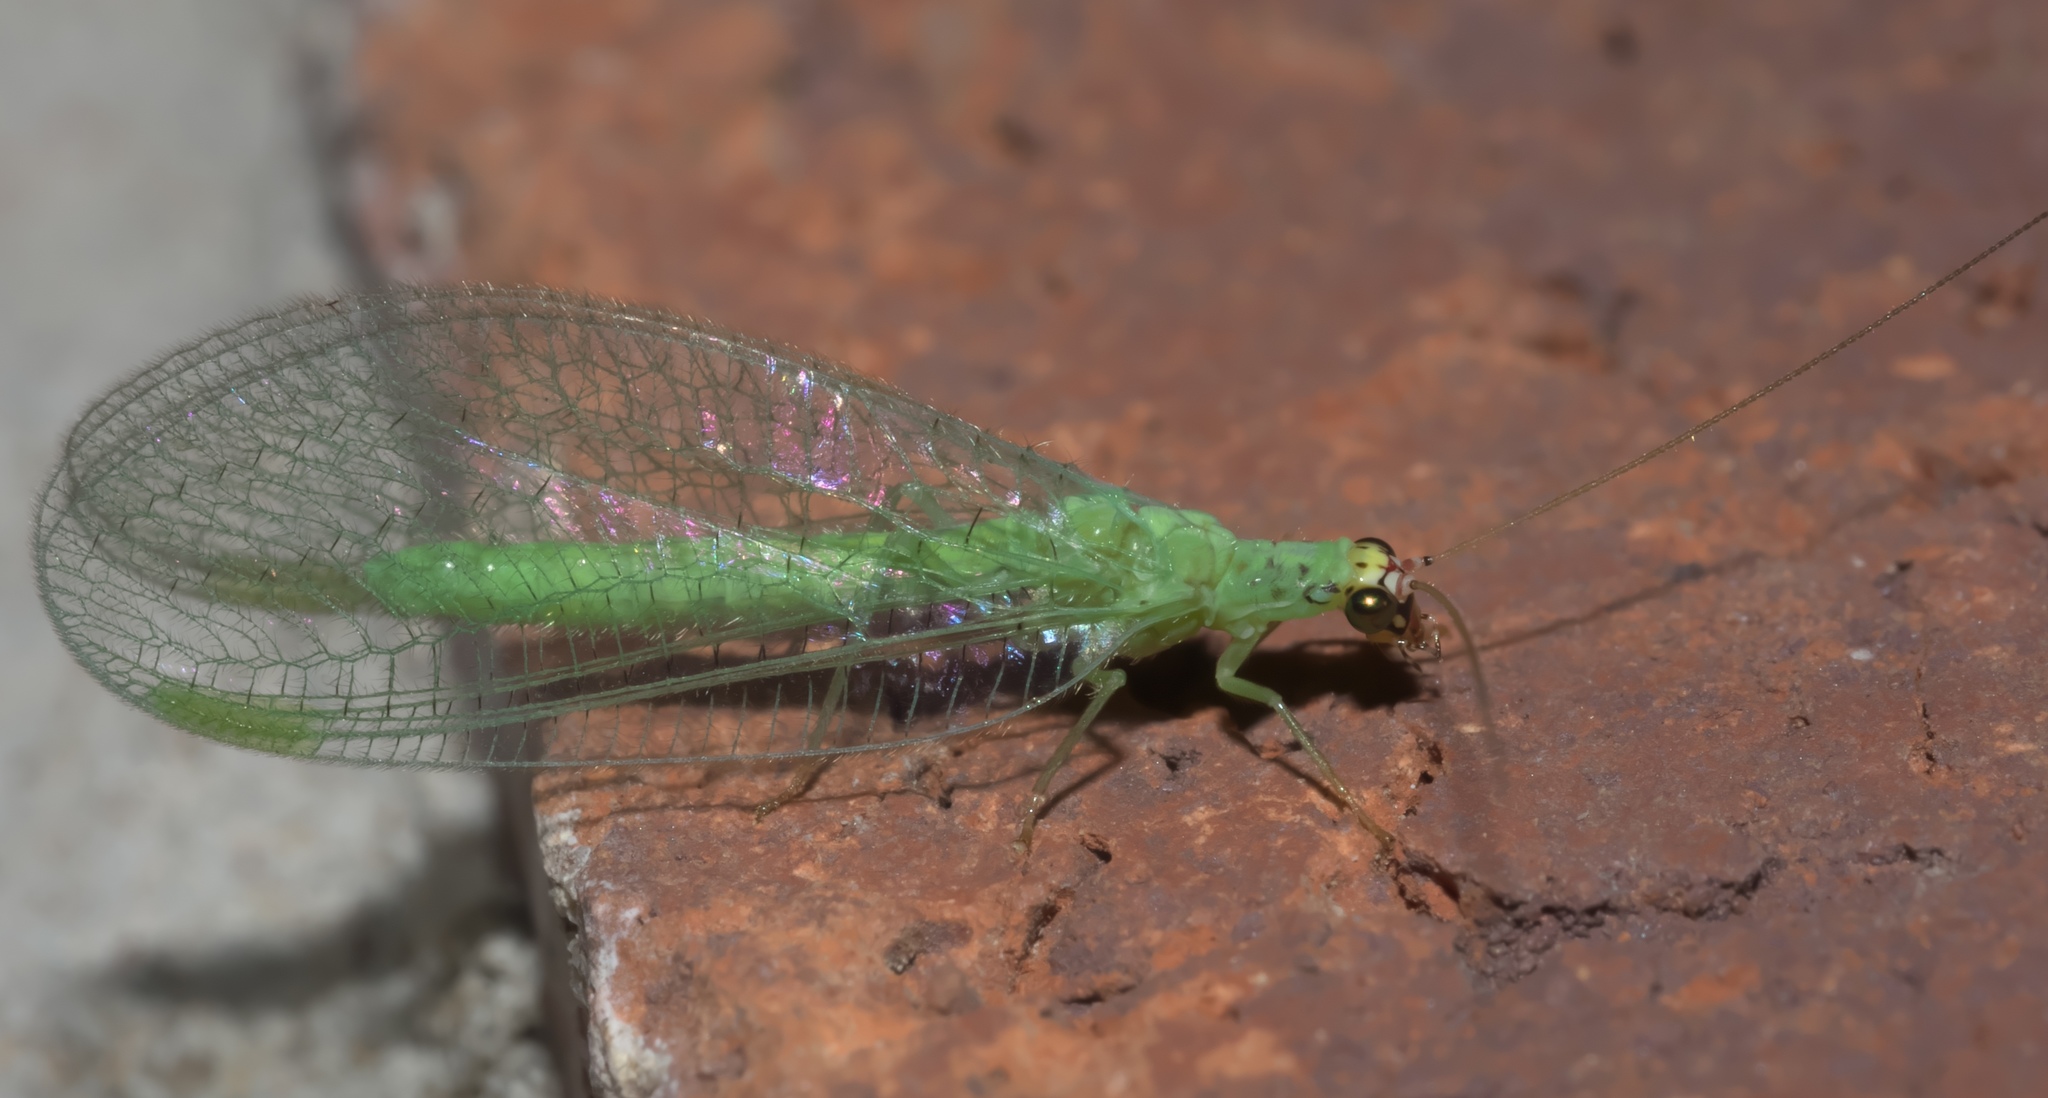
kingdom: Animalia
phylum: Arthropoda
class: Insecta
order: Neuroptera
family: Chrysopidae
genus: Chrysopa
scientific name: Chrysopa oculata
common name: Golden-eyed lacewing
